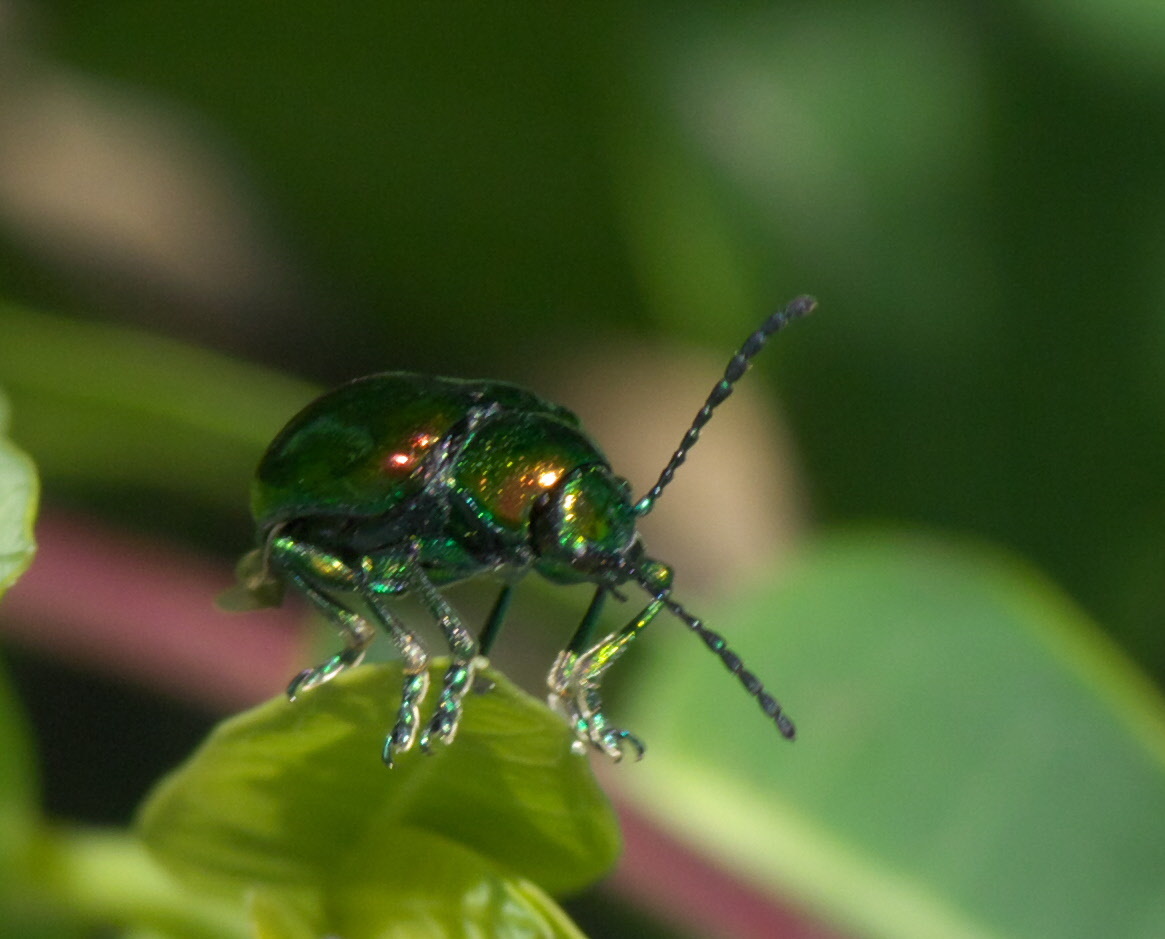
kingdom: Animalia
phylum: Arthropoda
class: Insecta
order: Coleoptera
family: Chrysomelidae
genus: Chrysochus
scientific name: Chrysochus auratus
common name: Dogbane leaf beetle
